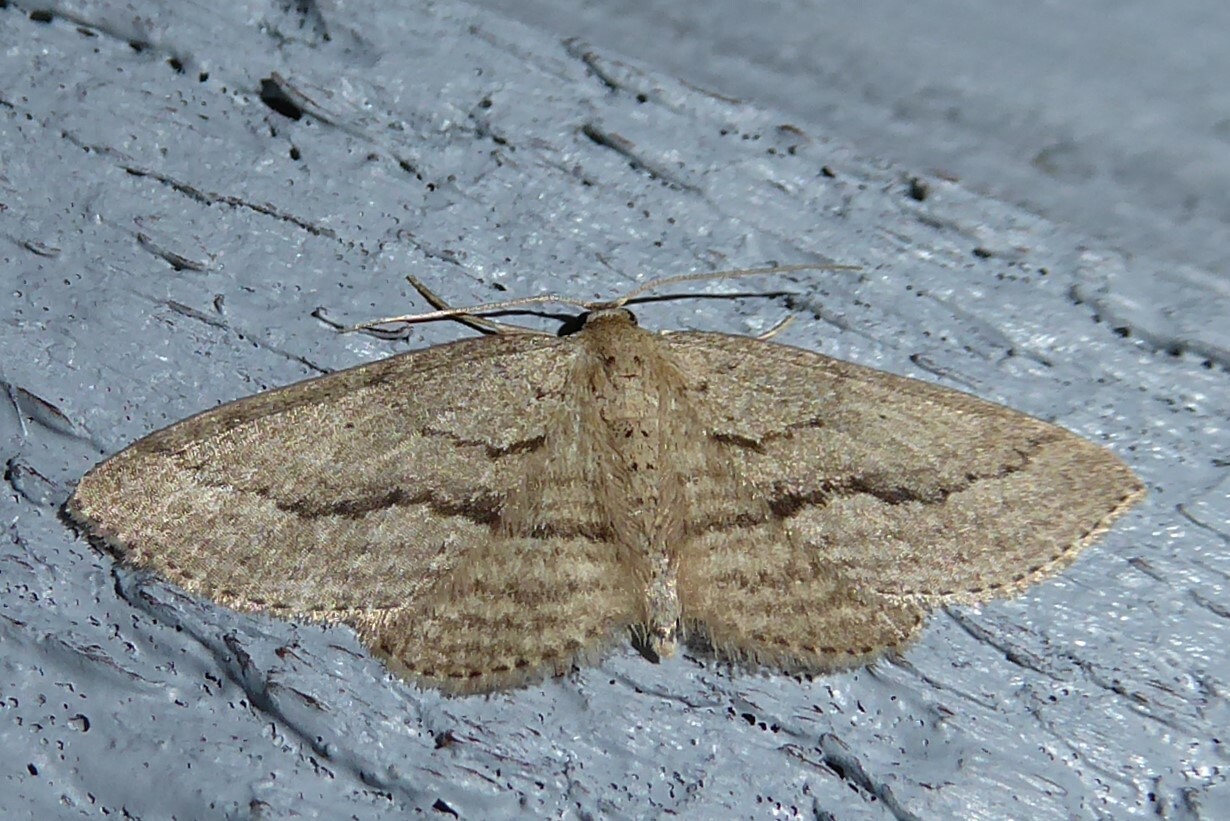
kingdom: Animalia
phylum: Arthropoda
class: Insecta
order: Lepidoptera
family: Geometridae
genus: Poecilasthena
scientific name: Poecilasthena schistaria
